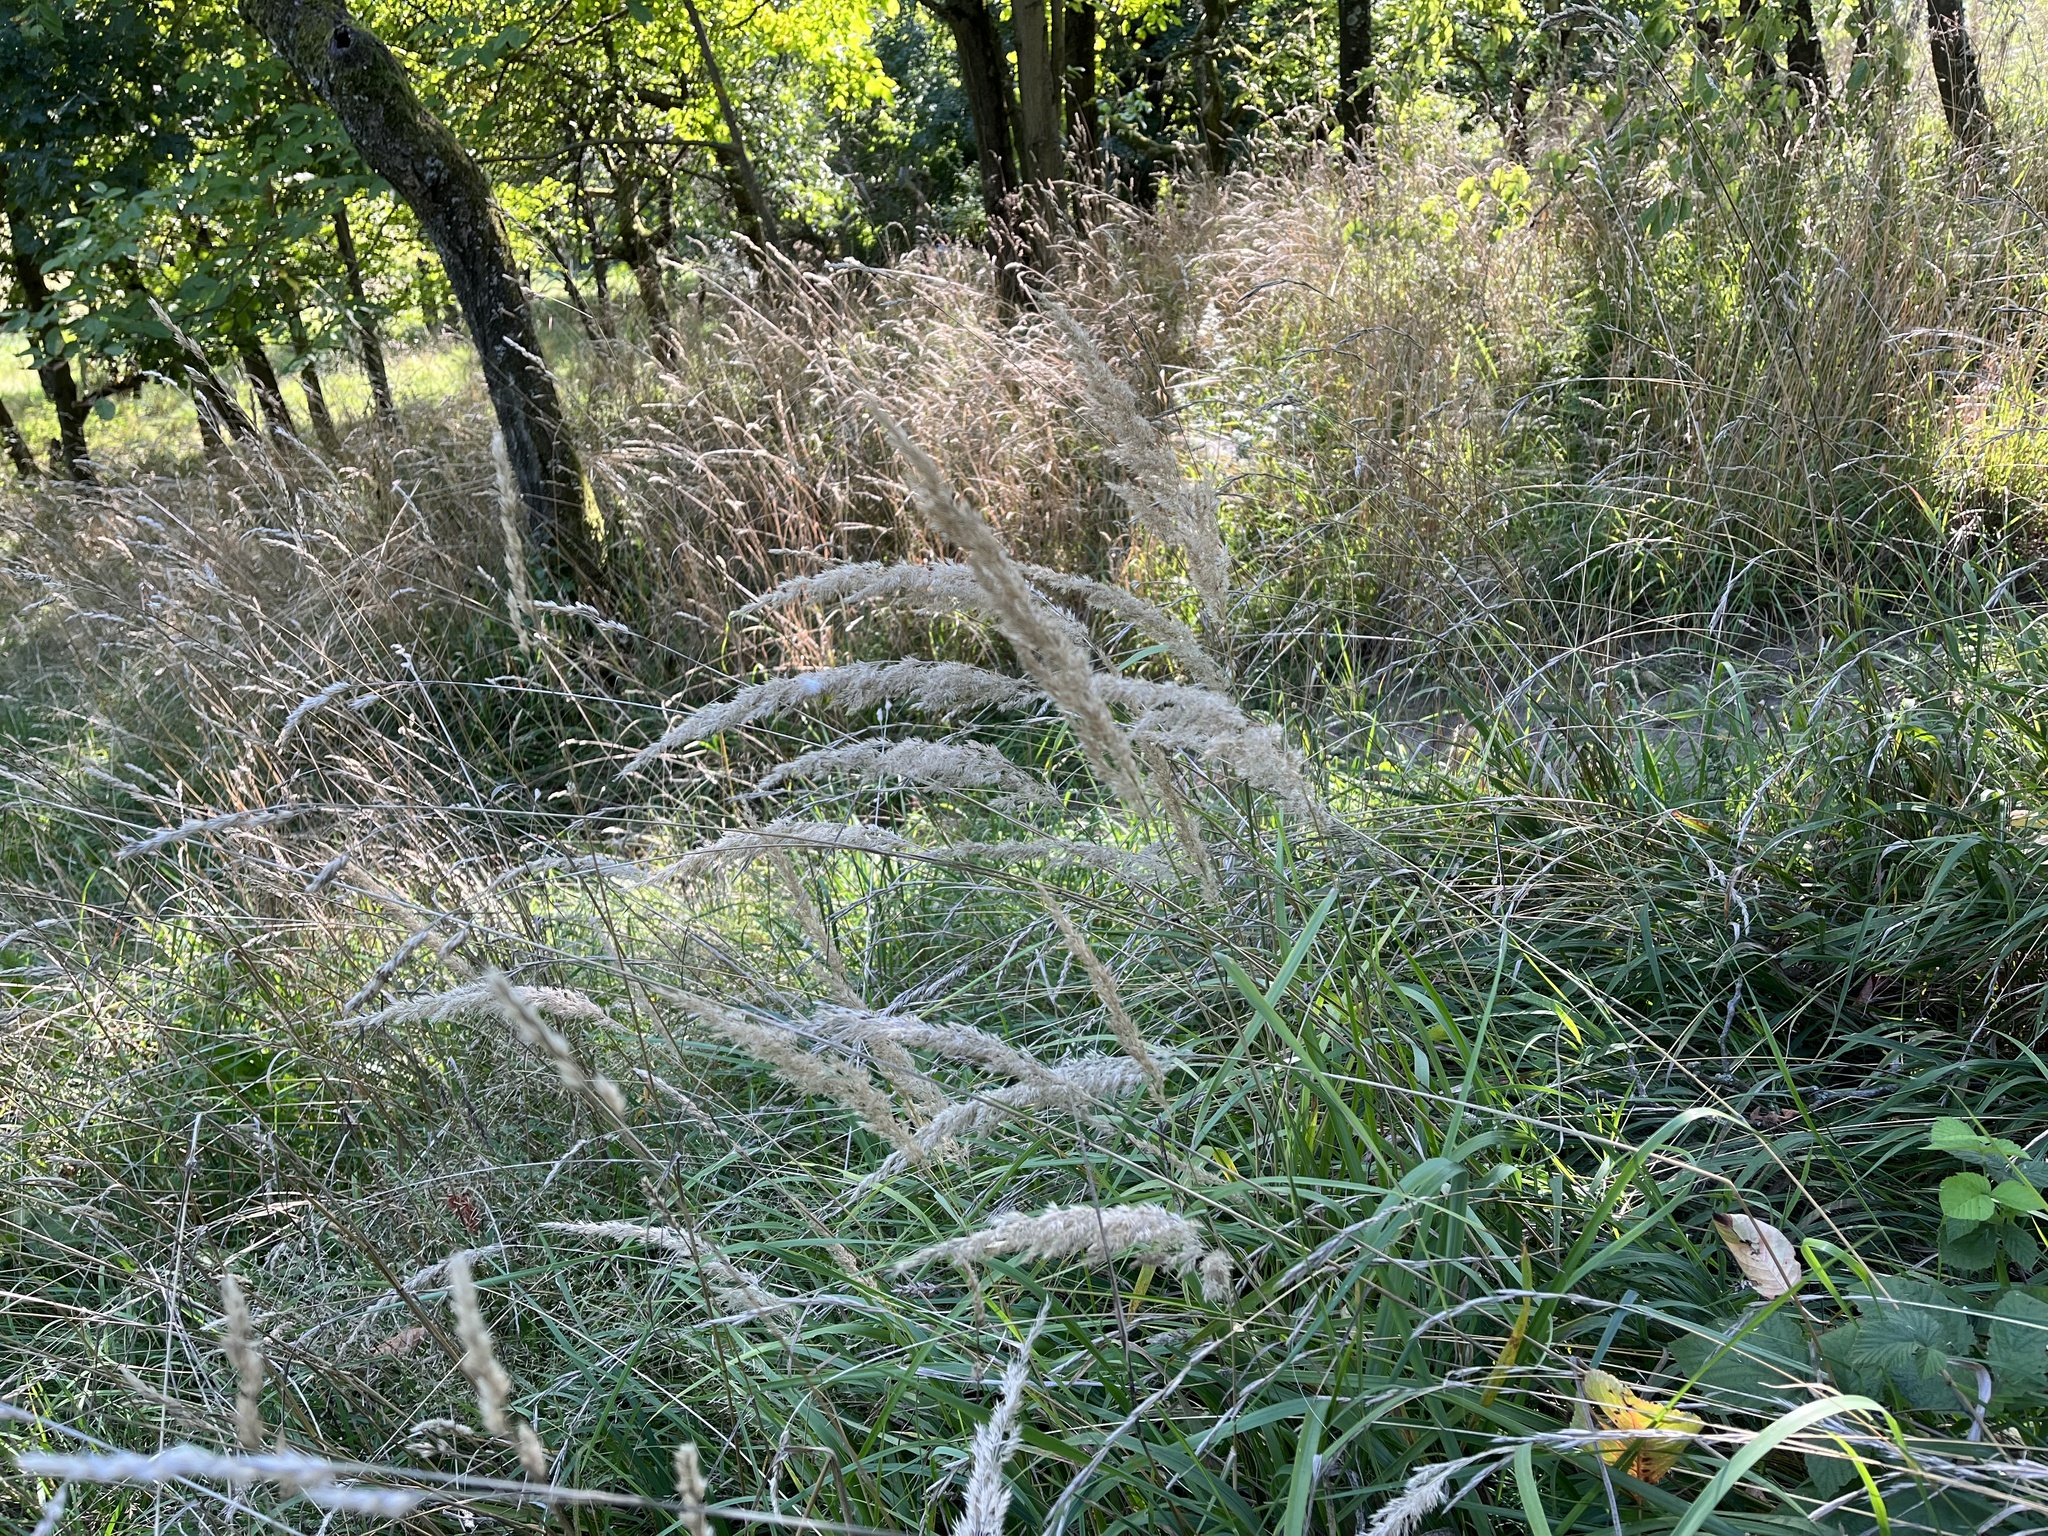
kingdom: Plantae
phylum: Tracheophyta
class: Liliopsida
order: Poales
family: Poaceae
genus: Calamagrostis
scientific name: Calamagrostis epigejos
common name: Wood small-reed
